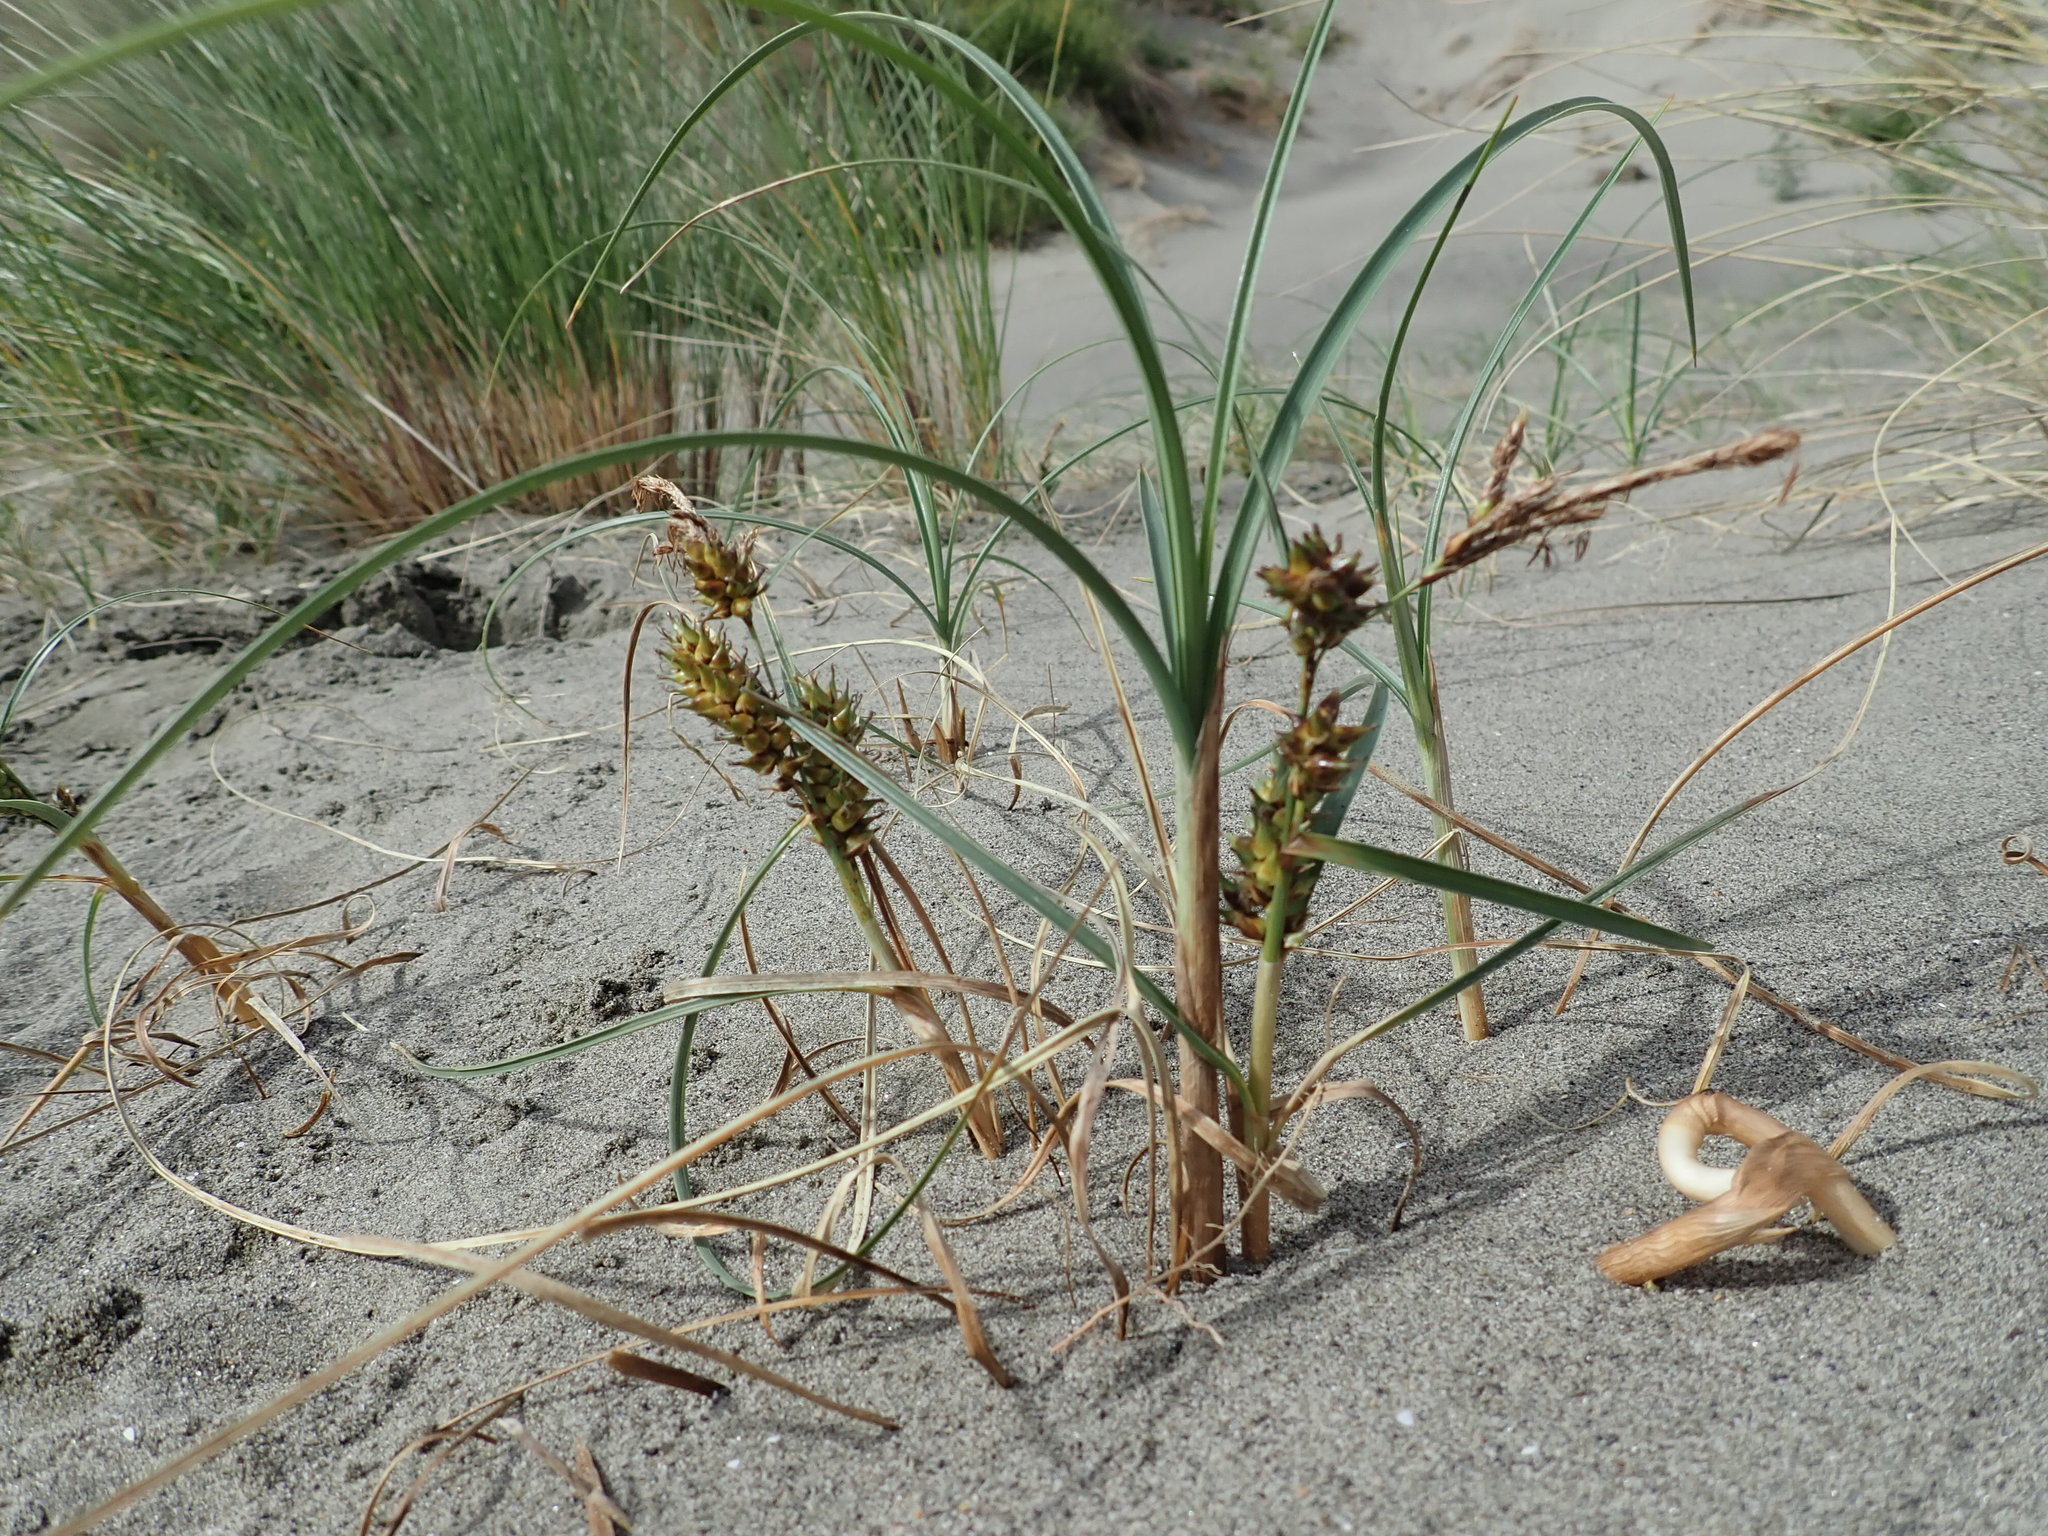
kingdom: Plantae
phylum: Tracheophyta
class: Liliopsida
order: Poales
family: Cyperaceae
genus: Carex
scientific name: Carex pumila
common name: Dwarf sedge
